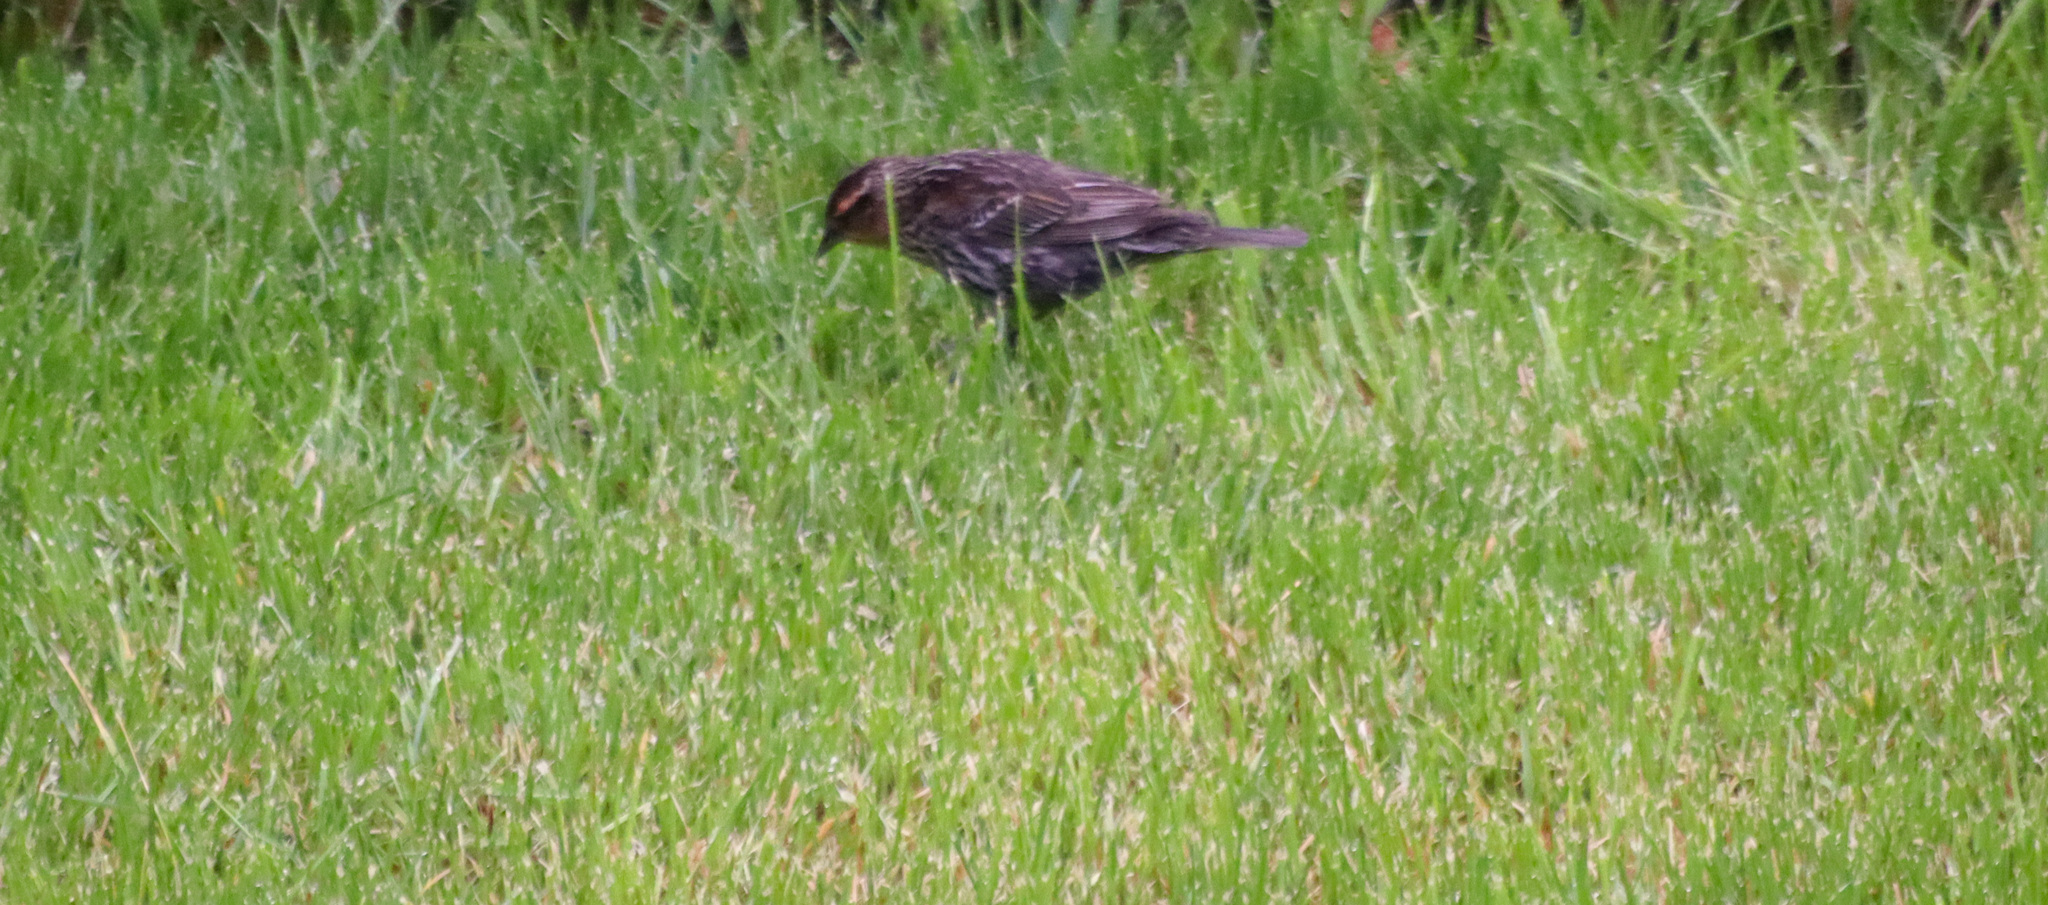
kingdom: Animalia
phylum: Chordata
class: Aves
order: Passeriformes
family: Icteridae
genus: Agelaius
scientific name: Agelaius phoeniceus
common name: Red-winged blackbird
